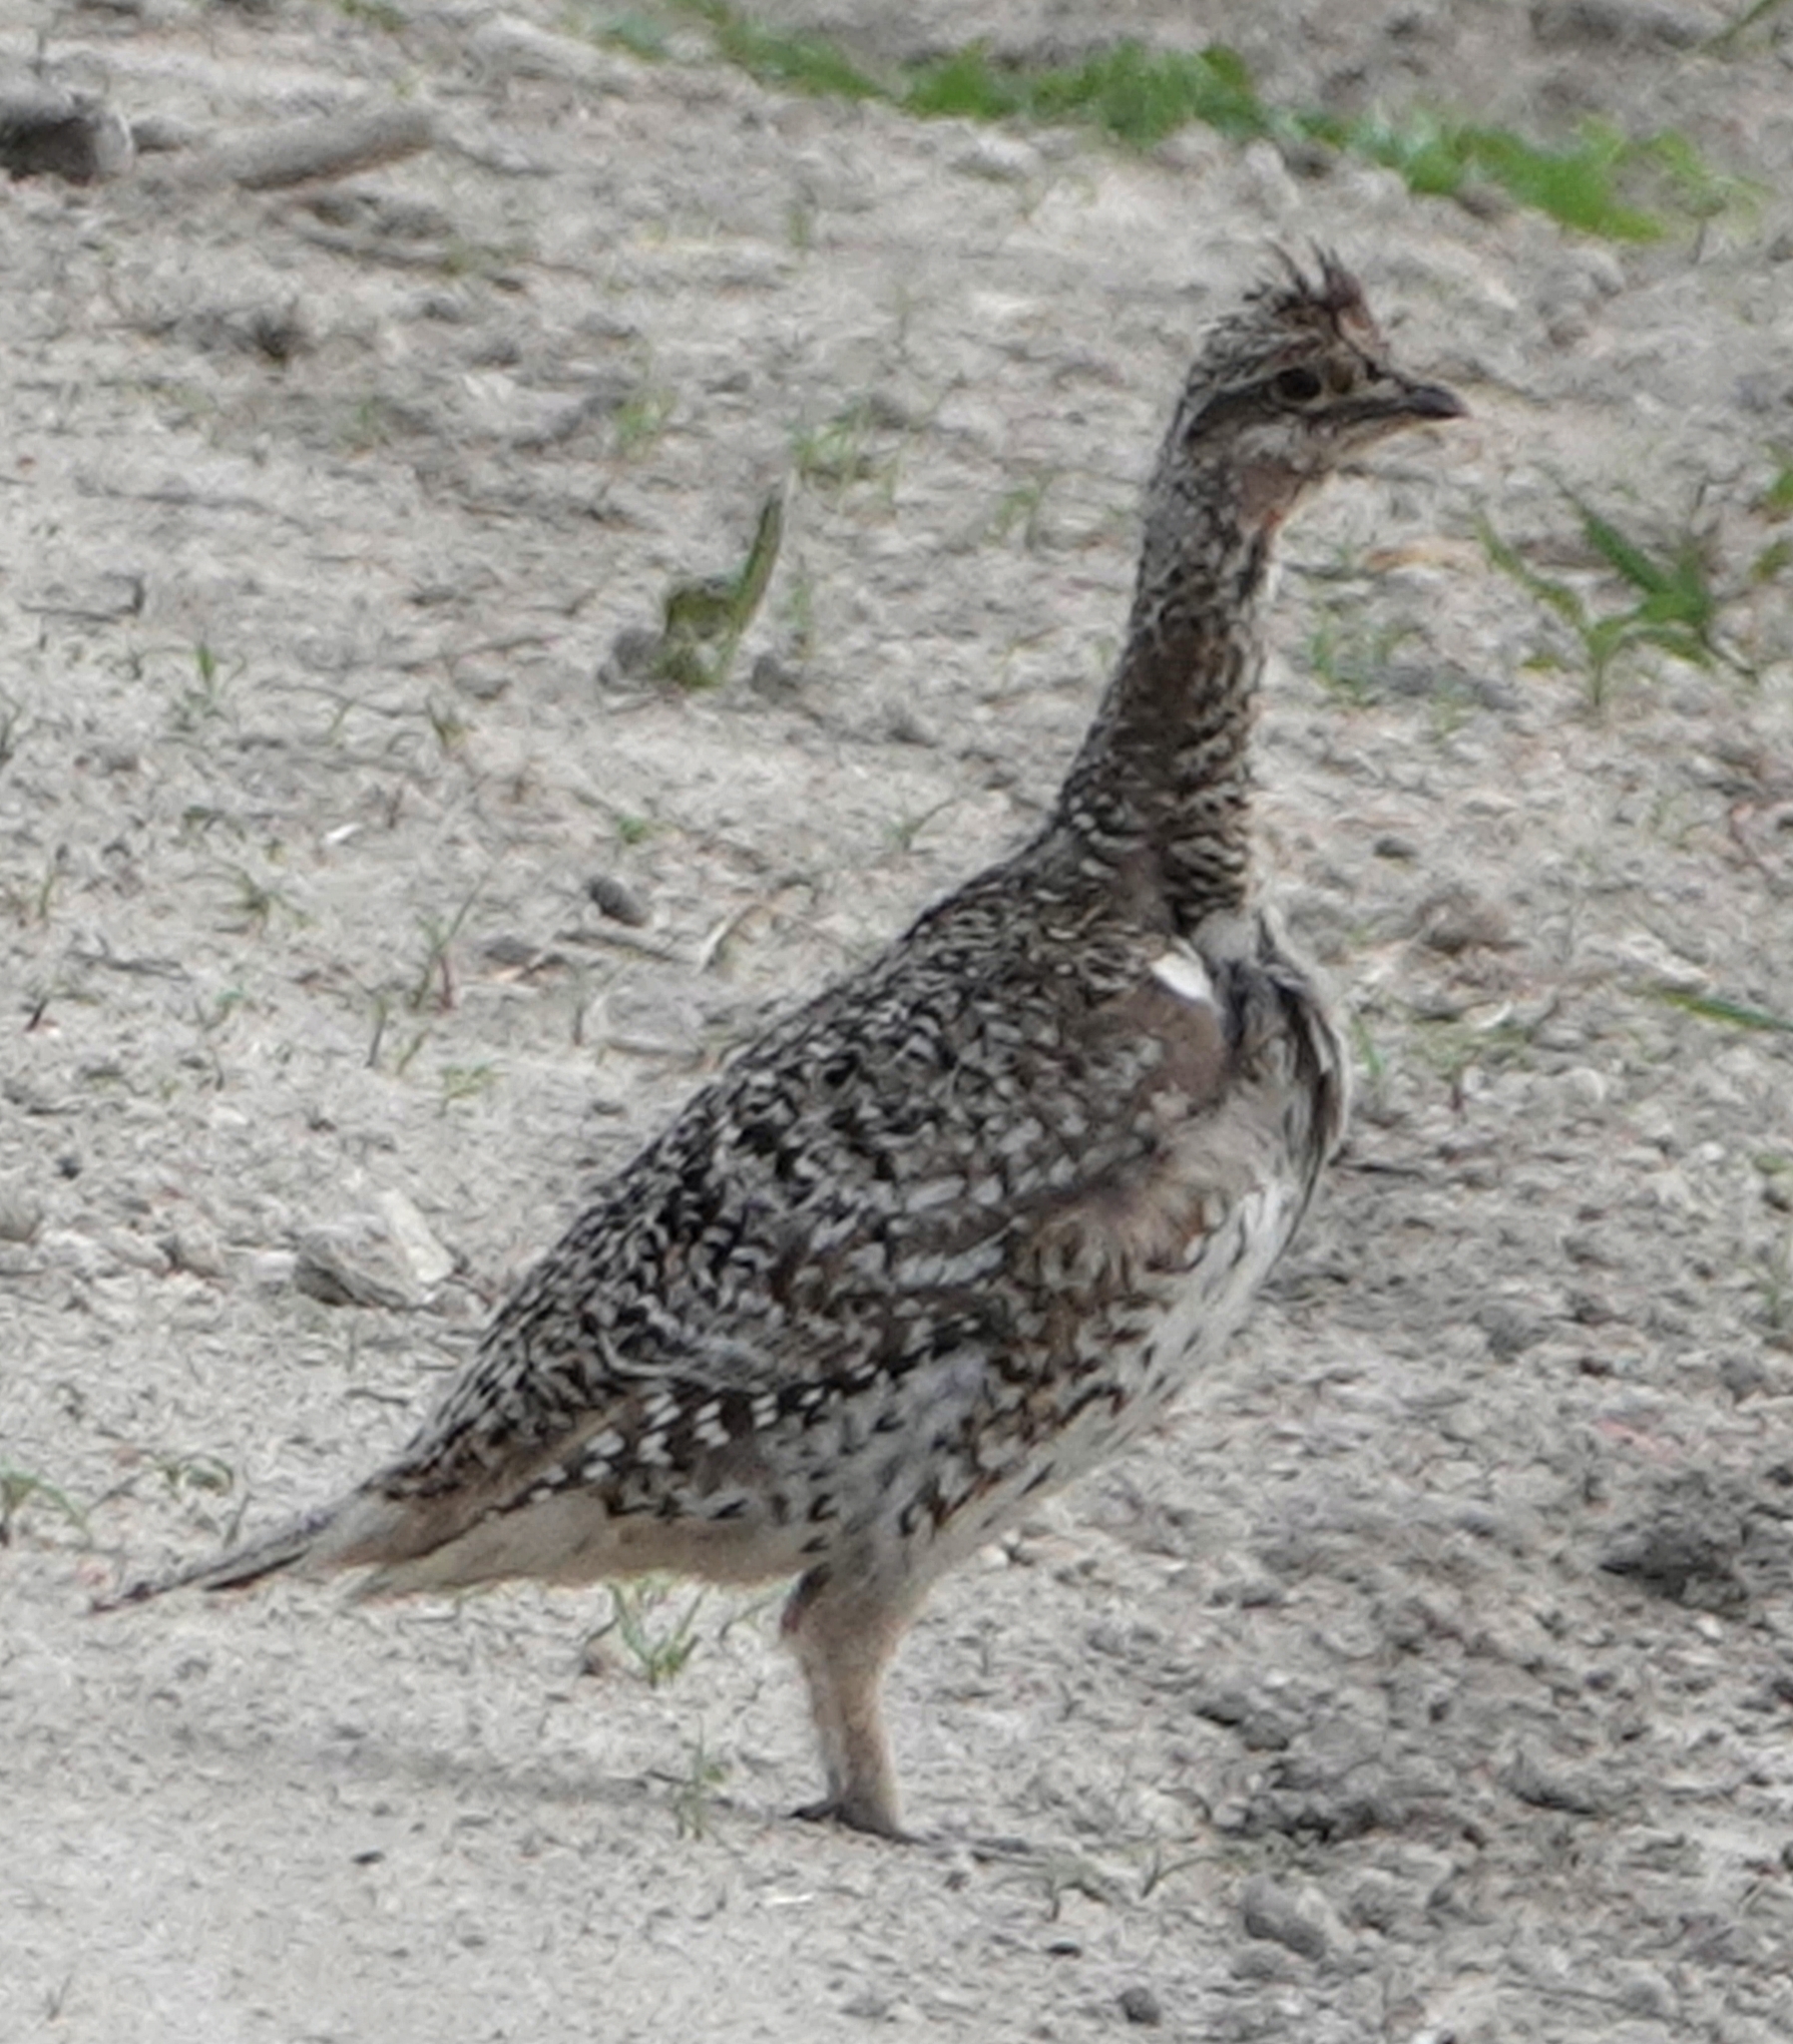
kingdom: Animalia
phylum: Chordata
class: Aves
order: Galliformes
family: Phasianidae
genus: Tympanuchus
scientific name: Tympanuchus phasianellus
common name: Sharp-tailed grouse
